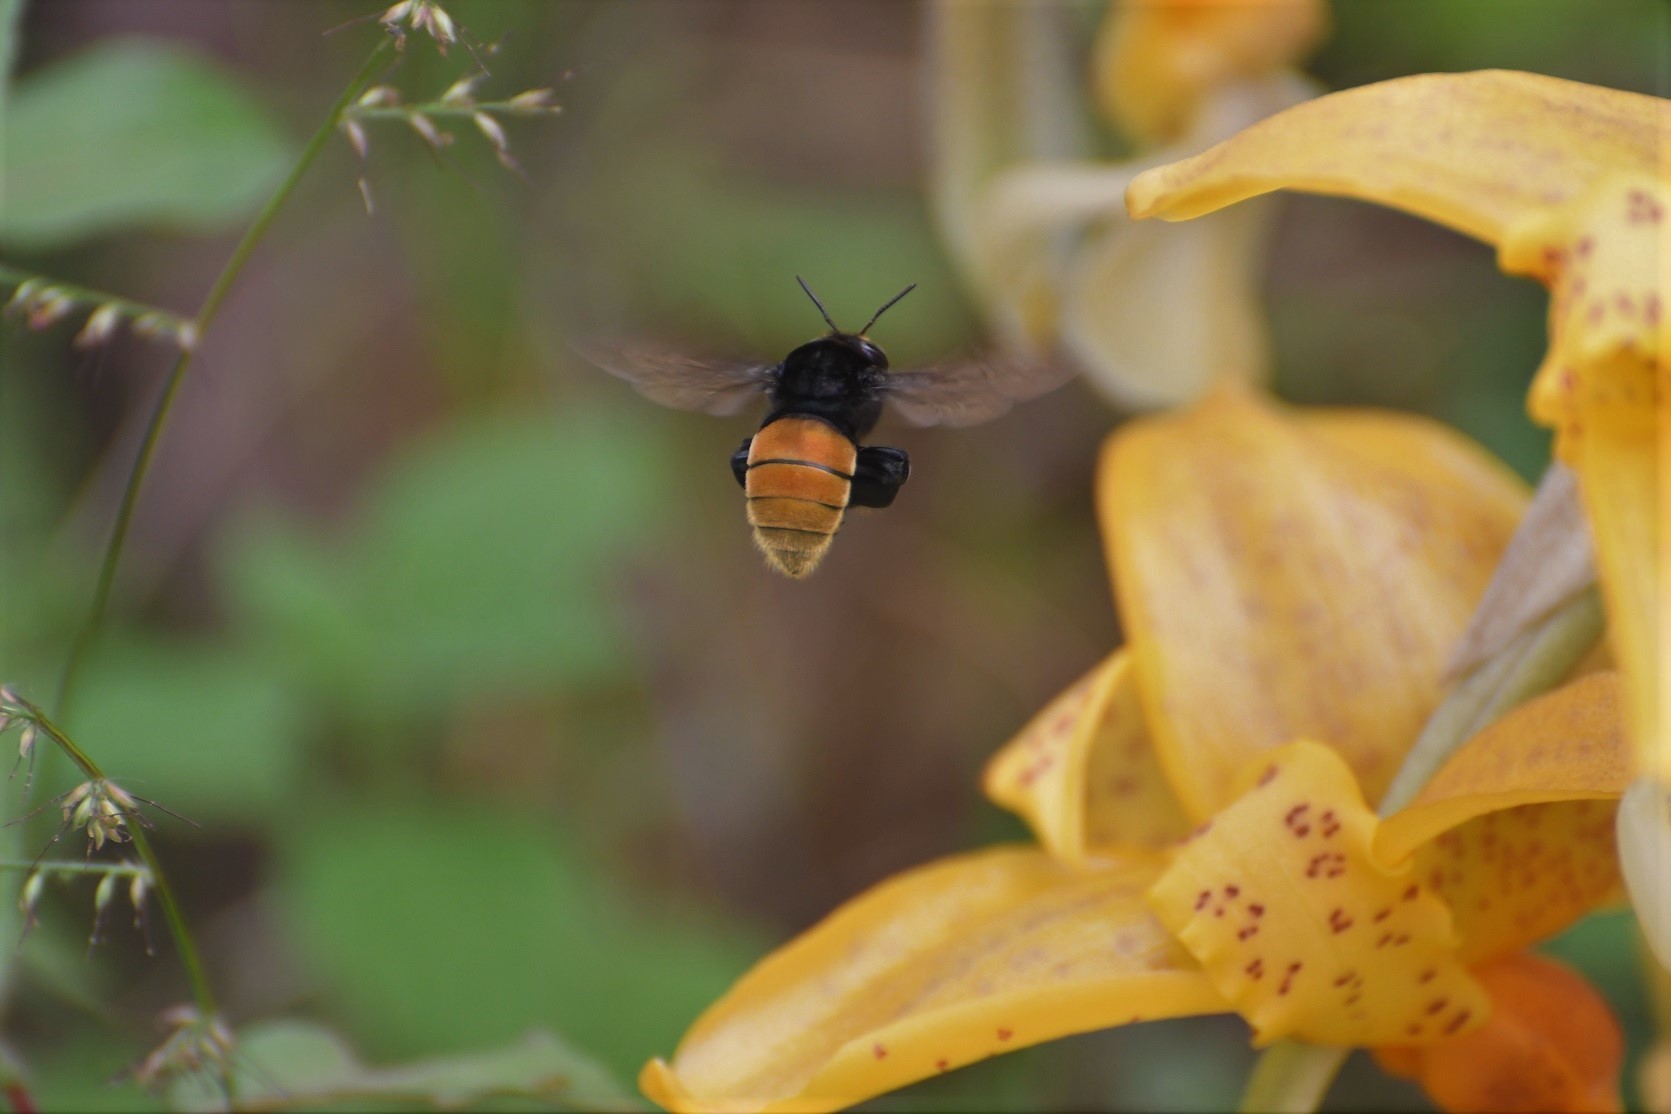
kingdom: Animalia
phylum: Arthropoda
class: Insecta
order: Hymenoptera
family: Apidae
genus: Eulaema
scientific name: Eulaema polychroma
